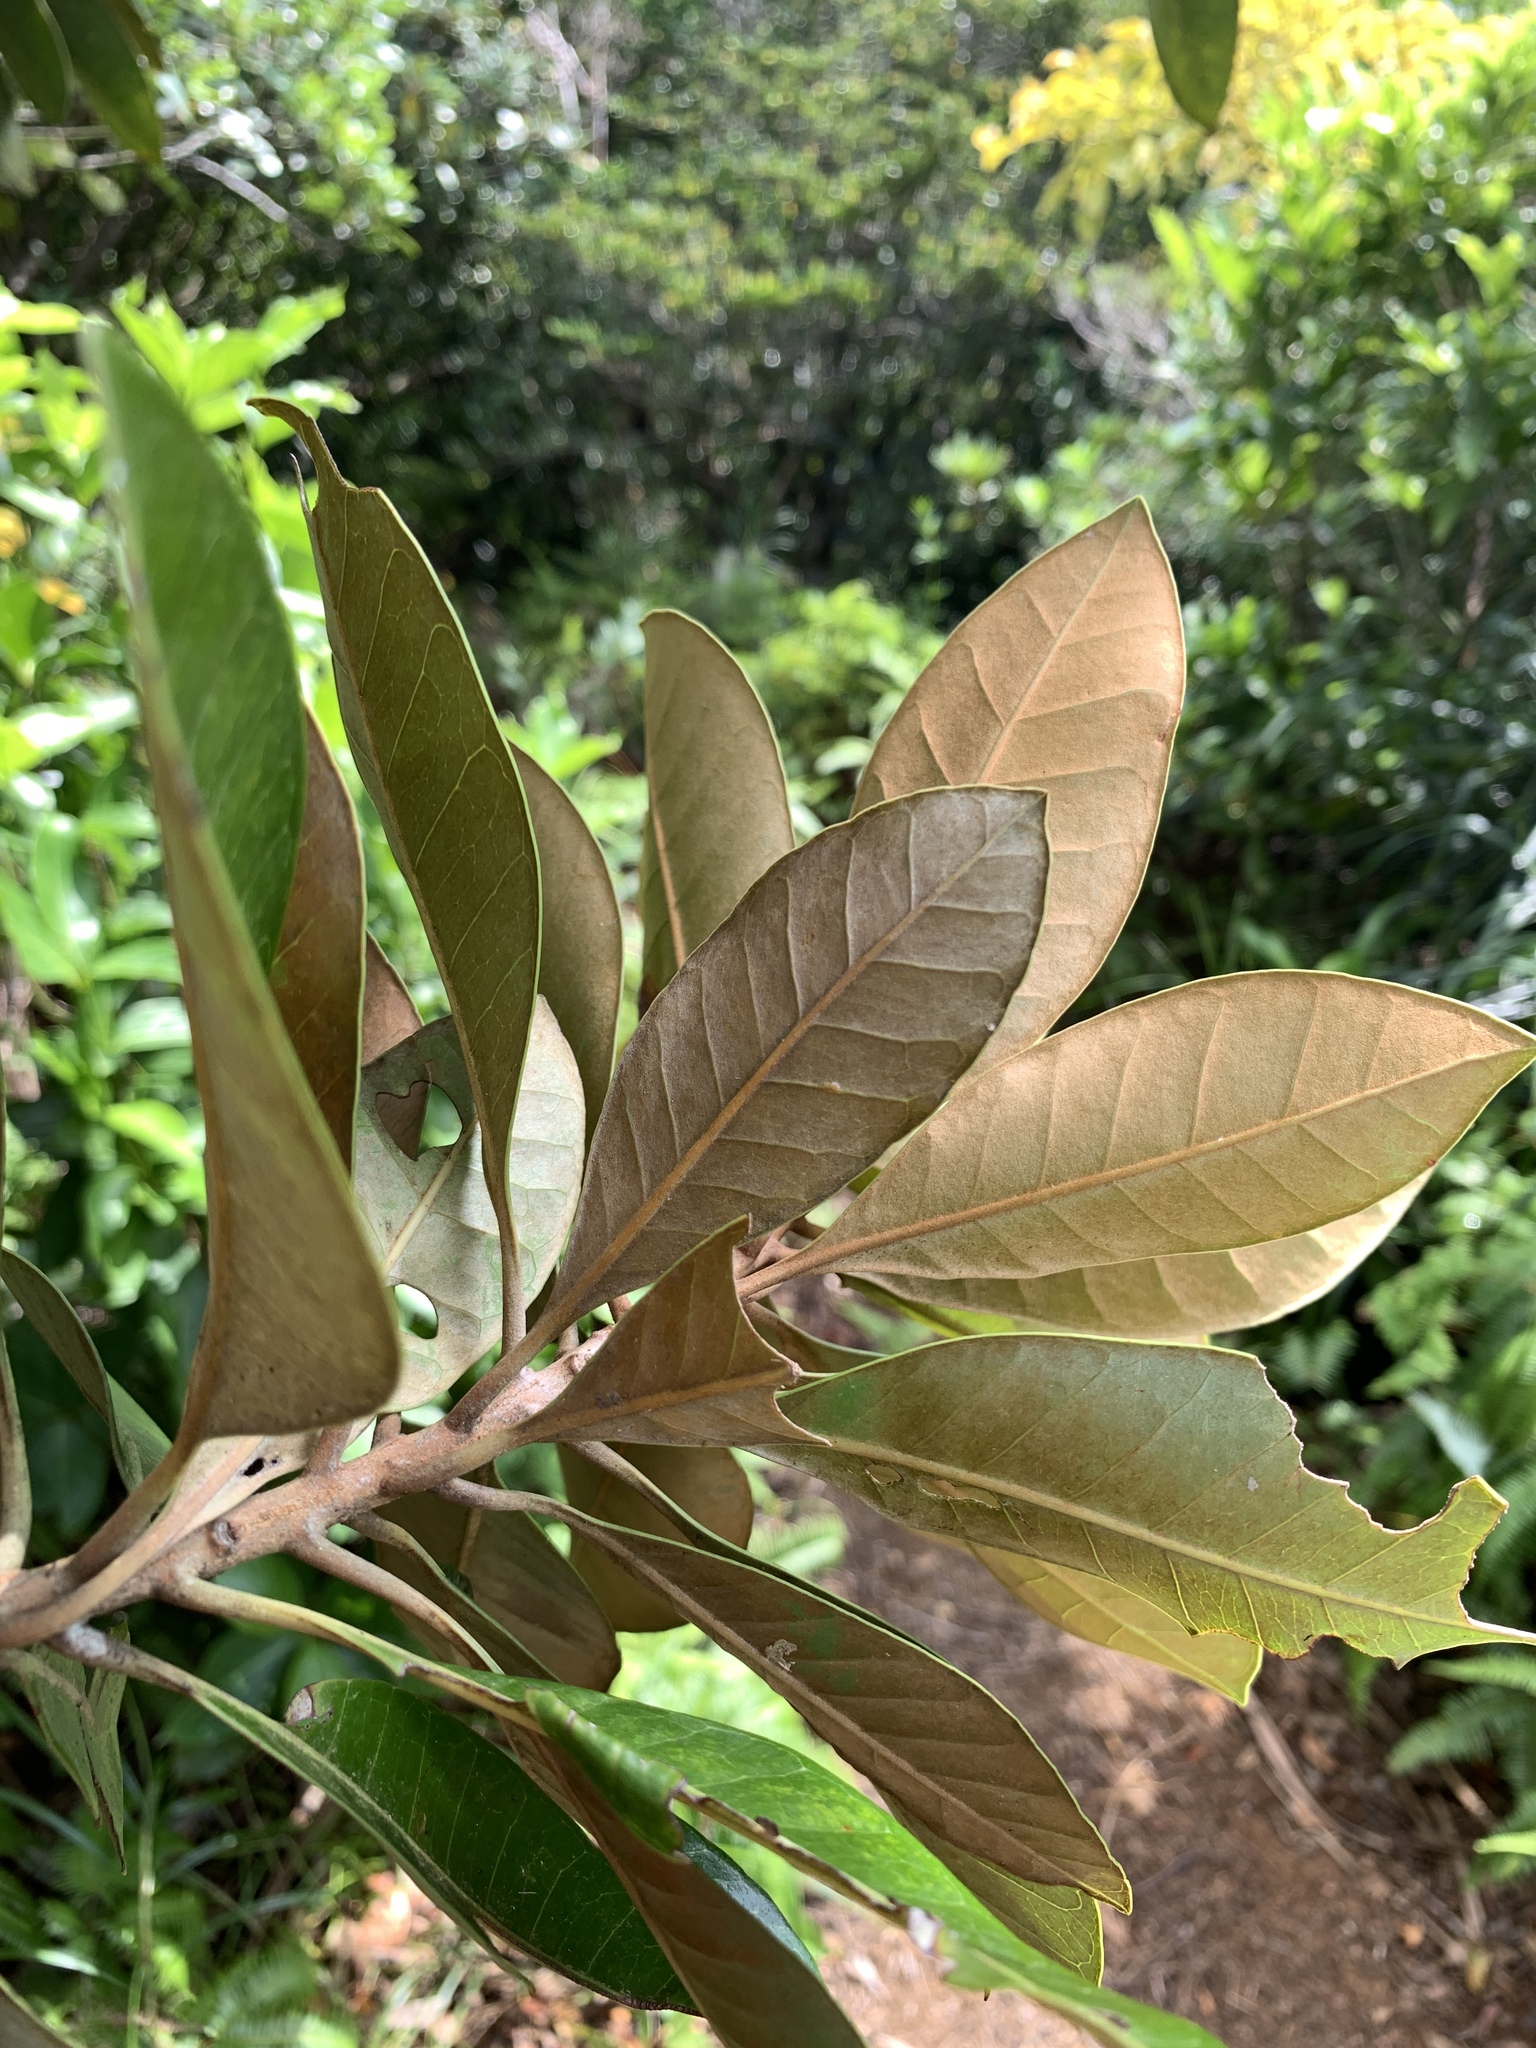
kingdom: Plantae
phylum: Tracheophyta
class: Magnoliopsida
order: Ericales
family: Sapotaceae
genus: Planchonella
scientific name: Planchonella obovata
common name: Black-ash
